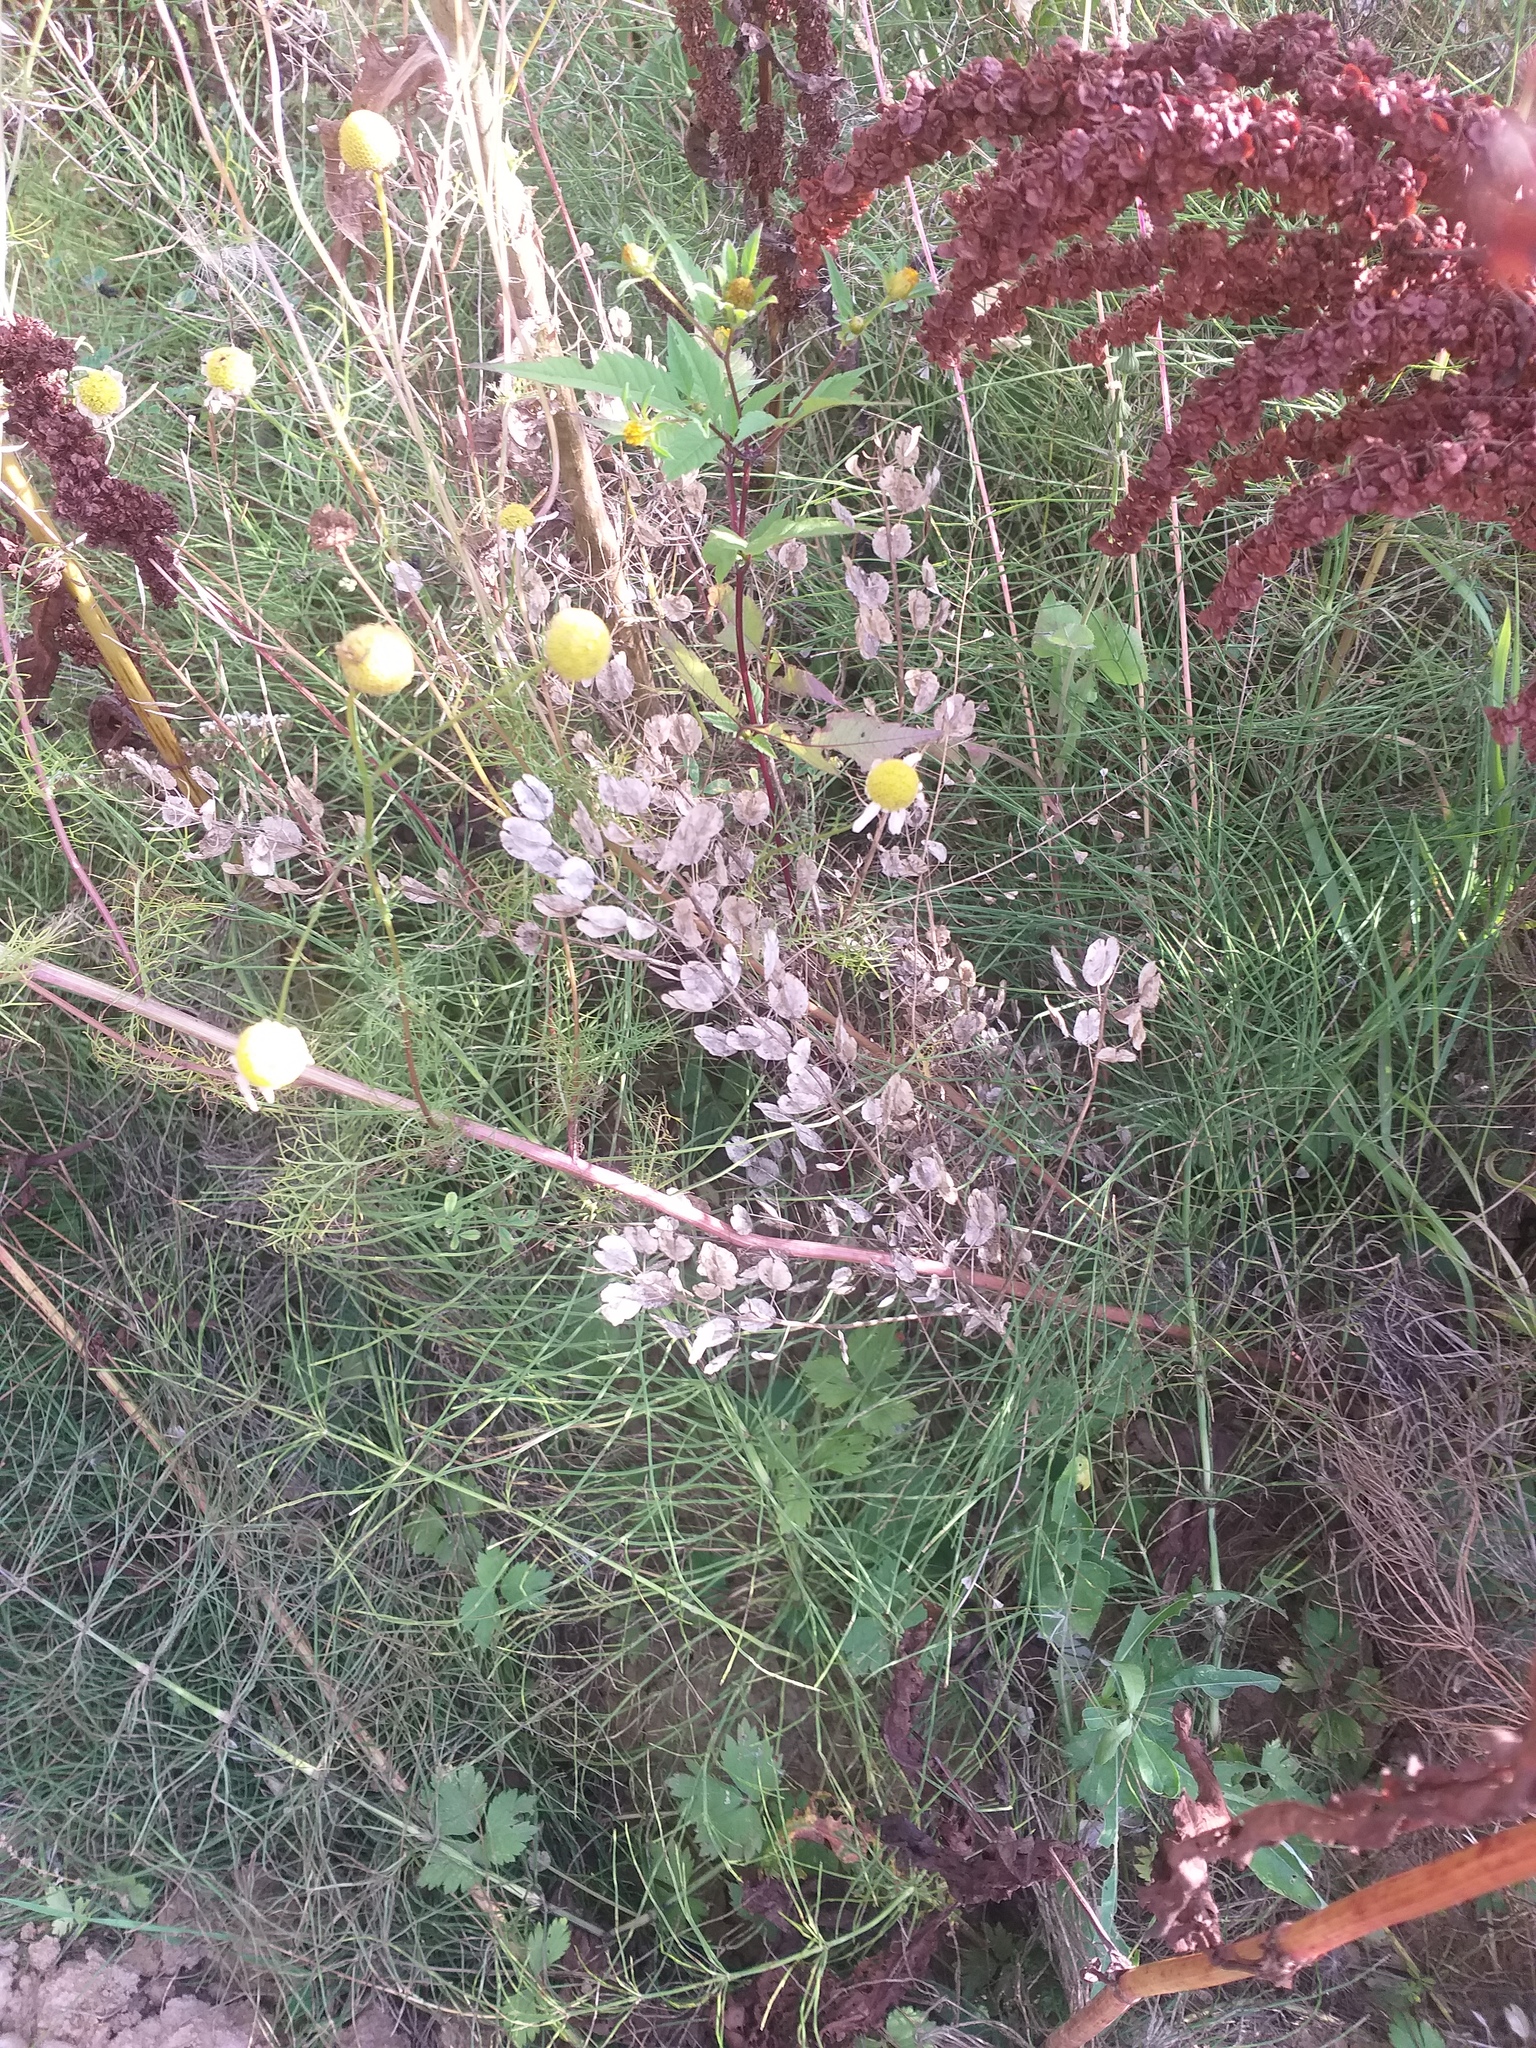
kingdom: Plantae
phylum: Tracheophyta
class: Magnoliopsida
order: Brassicales
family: Brassicaceae
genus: Thlaspi
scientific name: Thlaspi arvense
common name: Field pennycress
